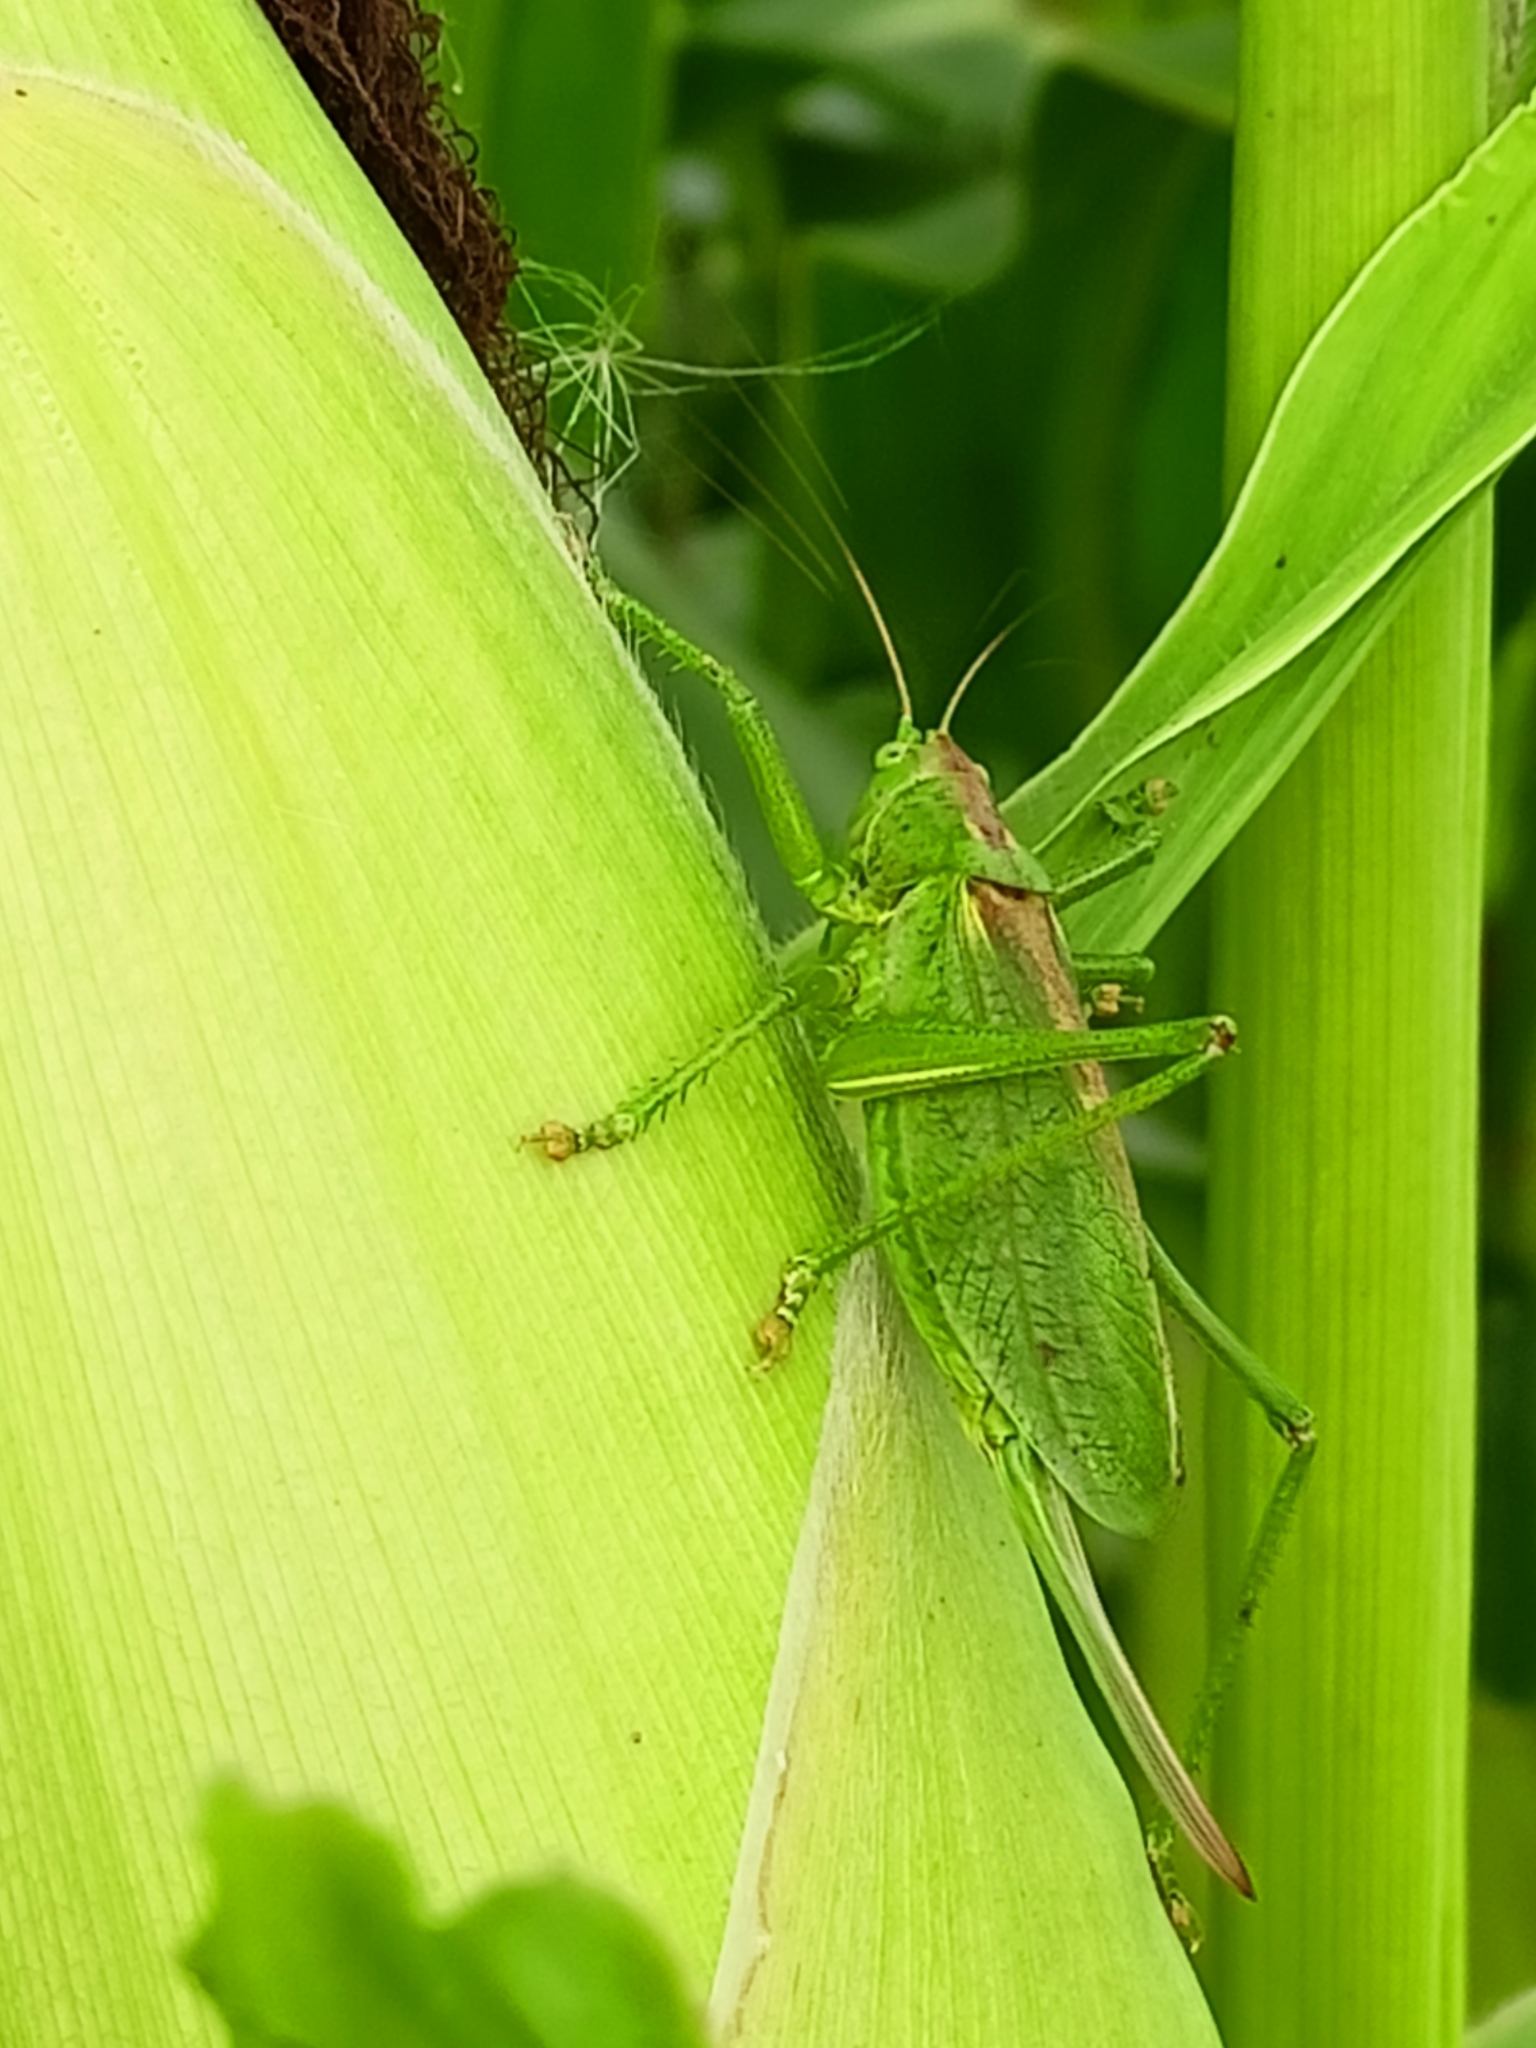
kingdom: Animalia
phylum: Arthropoda
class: Insecta
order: Orthoptera
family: Tettigoniidae
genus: Tettigonia
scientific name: Tettigonia cantans
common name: Upland green bush-cricket
